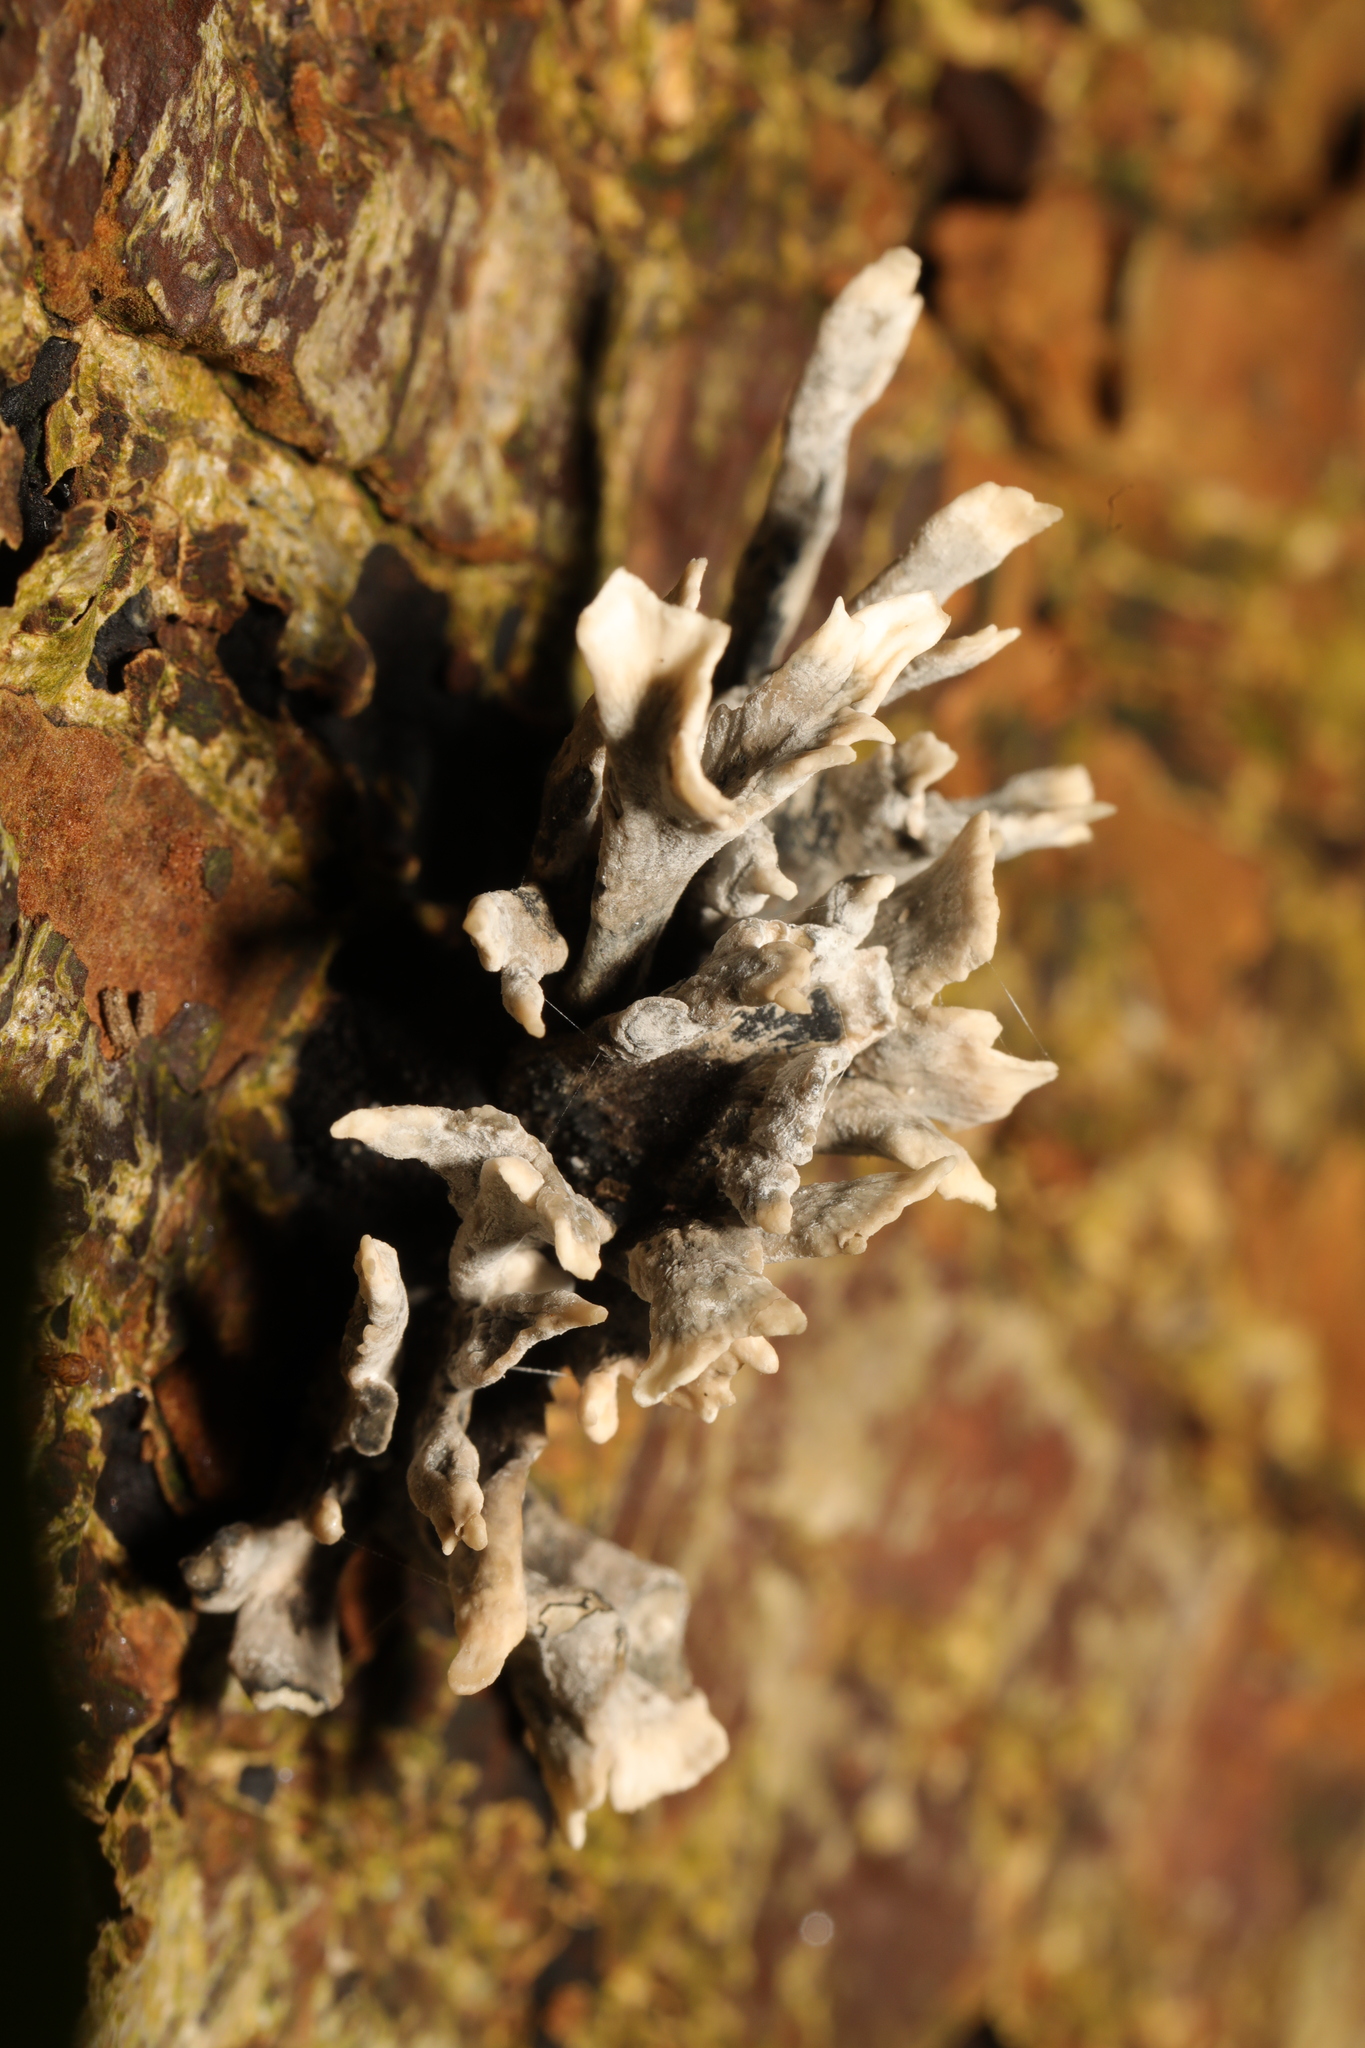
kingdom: Fungi
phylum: Ascomycota
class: Sordariomycetes
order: Xylariales
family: Xylariaceae
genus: Xylaria
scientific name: Xylaria hypoxylon
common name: Candle-snuff fungus
